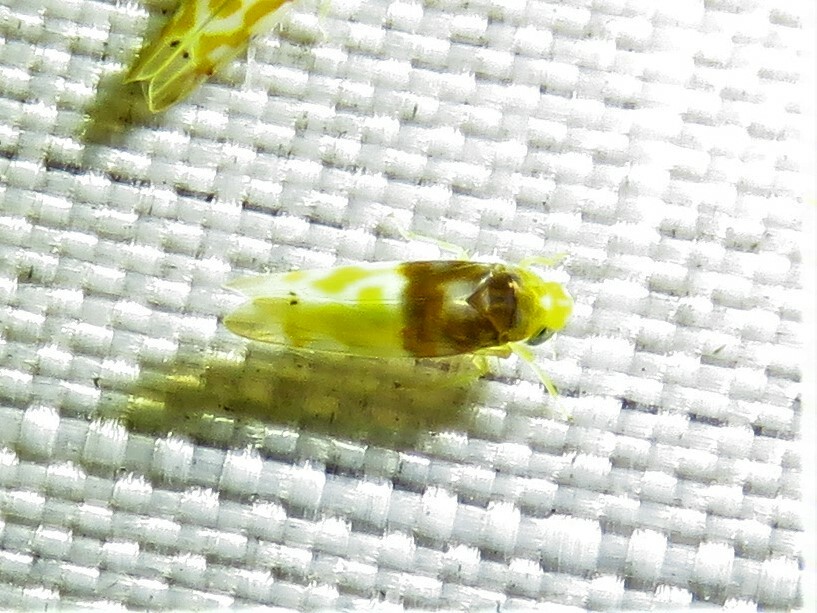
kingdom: Animalia
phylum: Arthropoda
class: Insecta
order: Hemiptera
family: Cicadellidae
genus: Eratoneura
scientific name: Eratoneura basilaris
